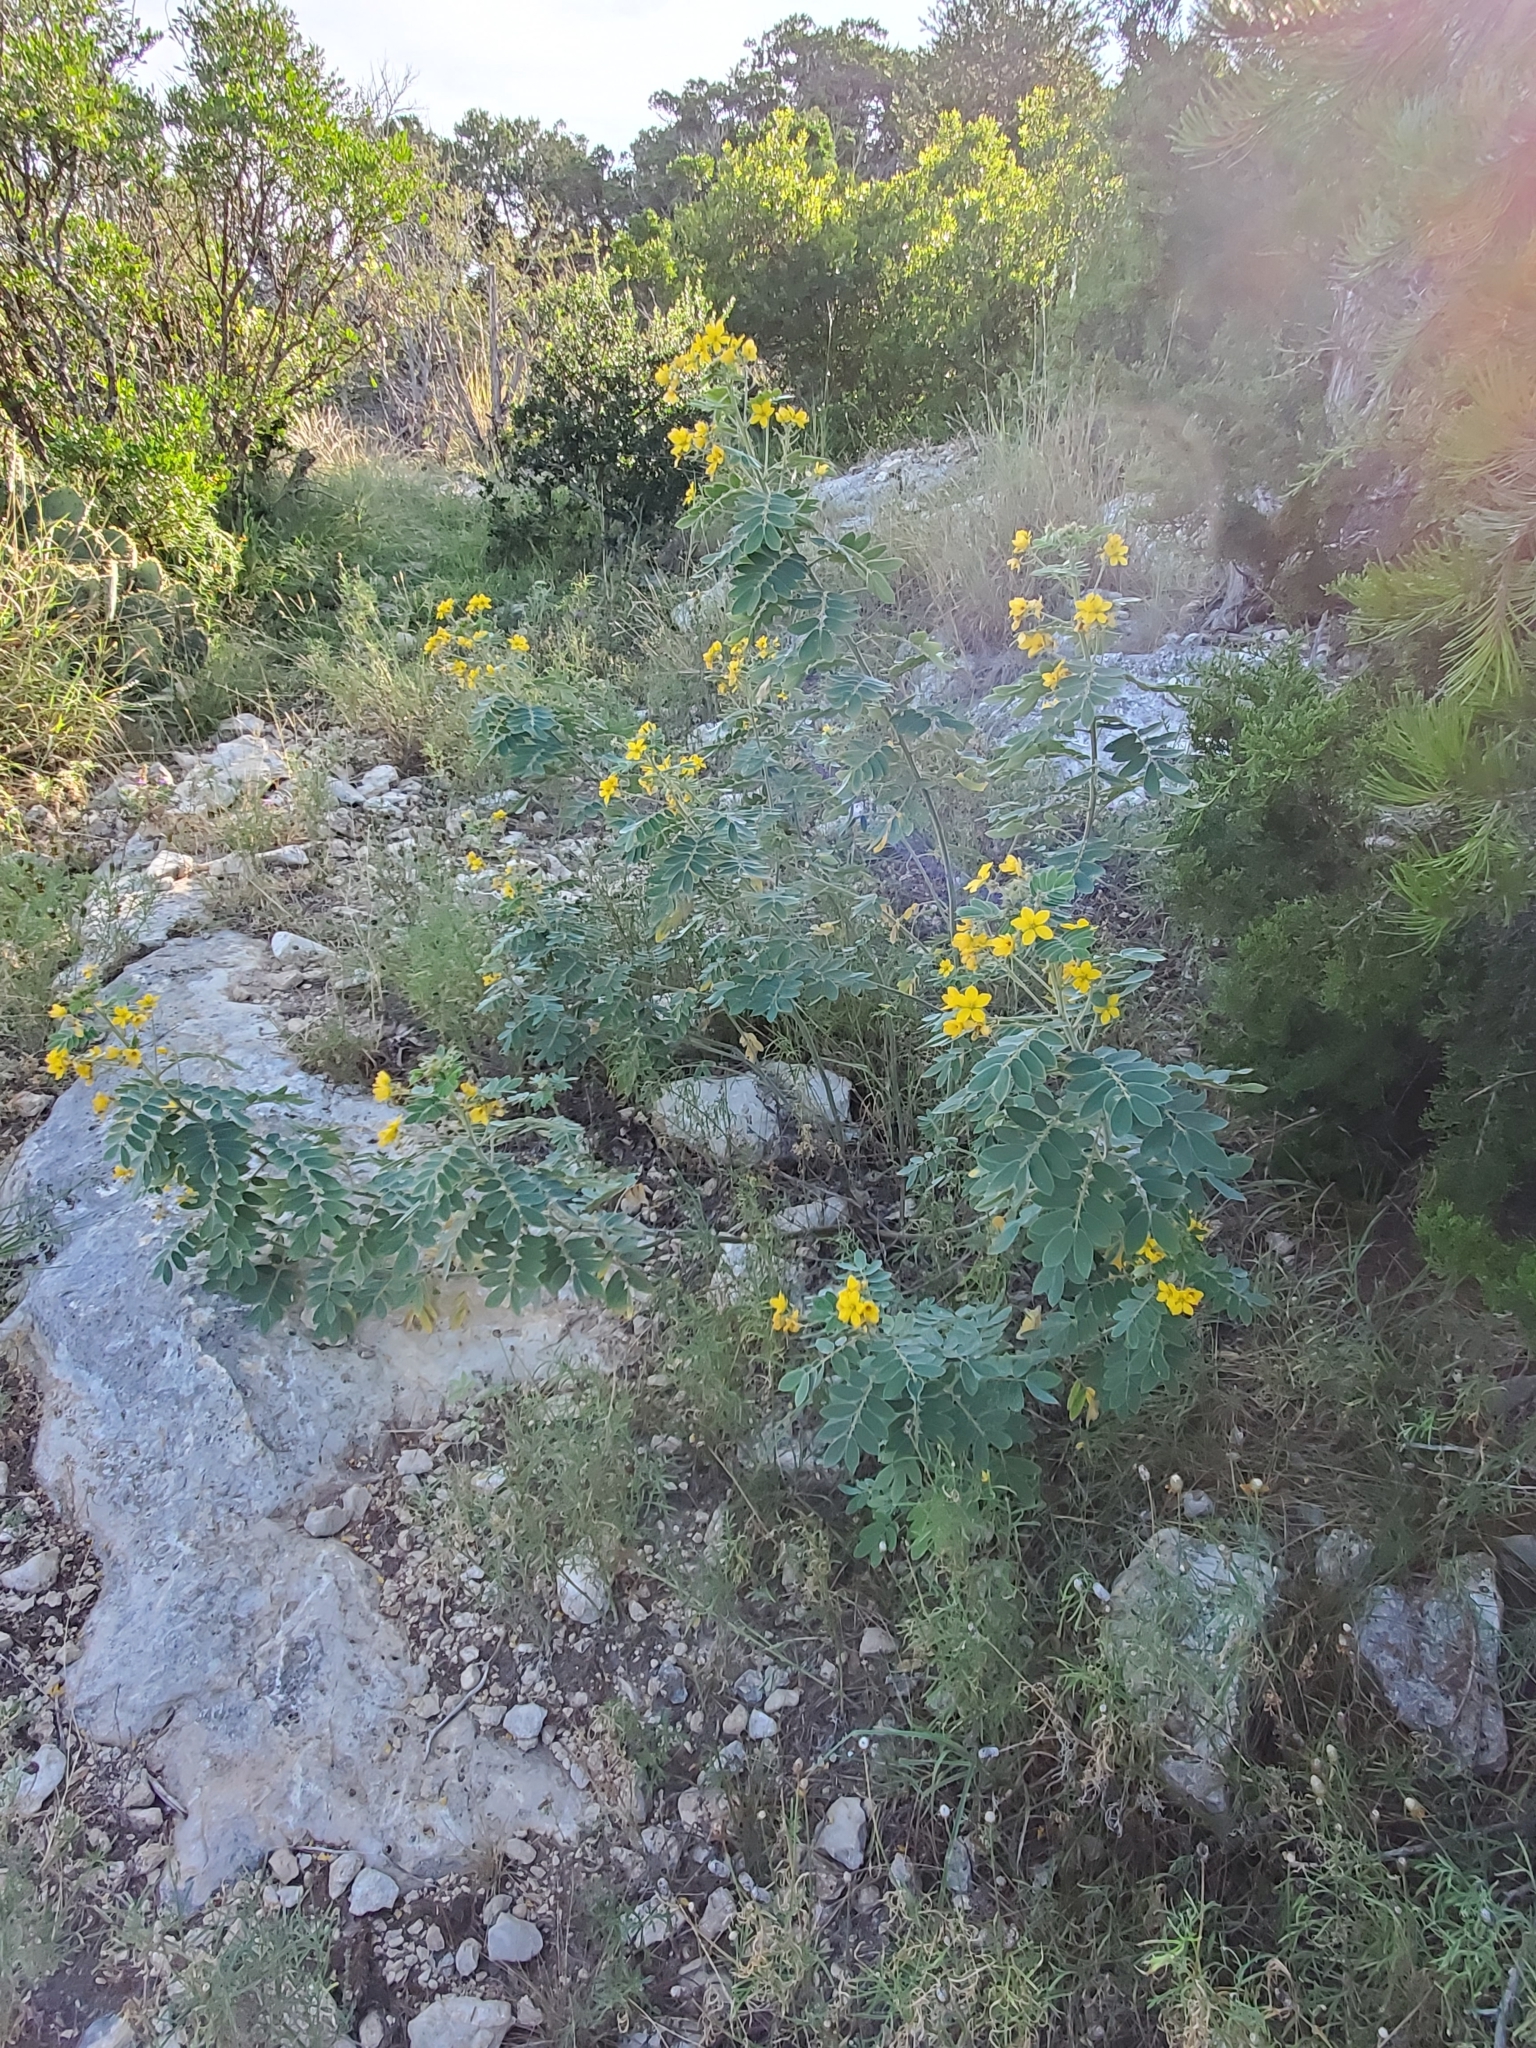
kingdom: Plantae
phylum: Tracheophyta
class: Magnoliopsida
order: Fabales
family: Fabaceae
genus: Senna
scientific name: Senna lindheimeriana
